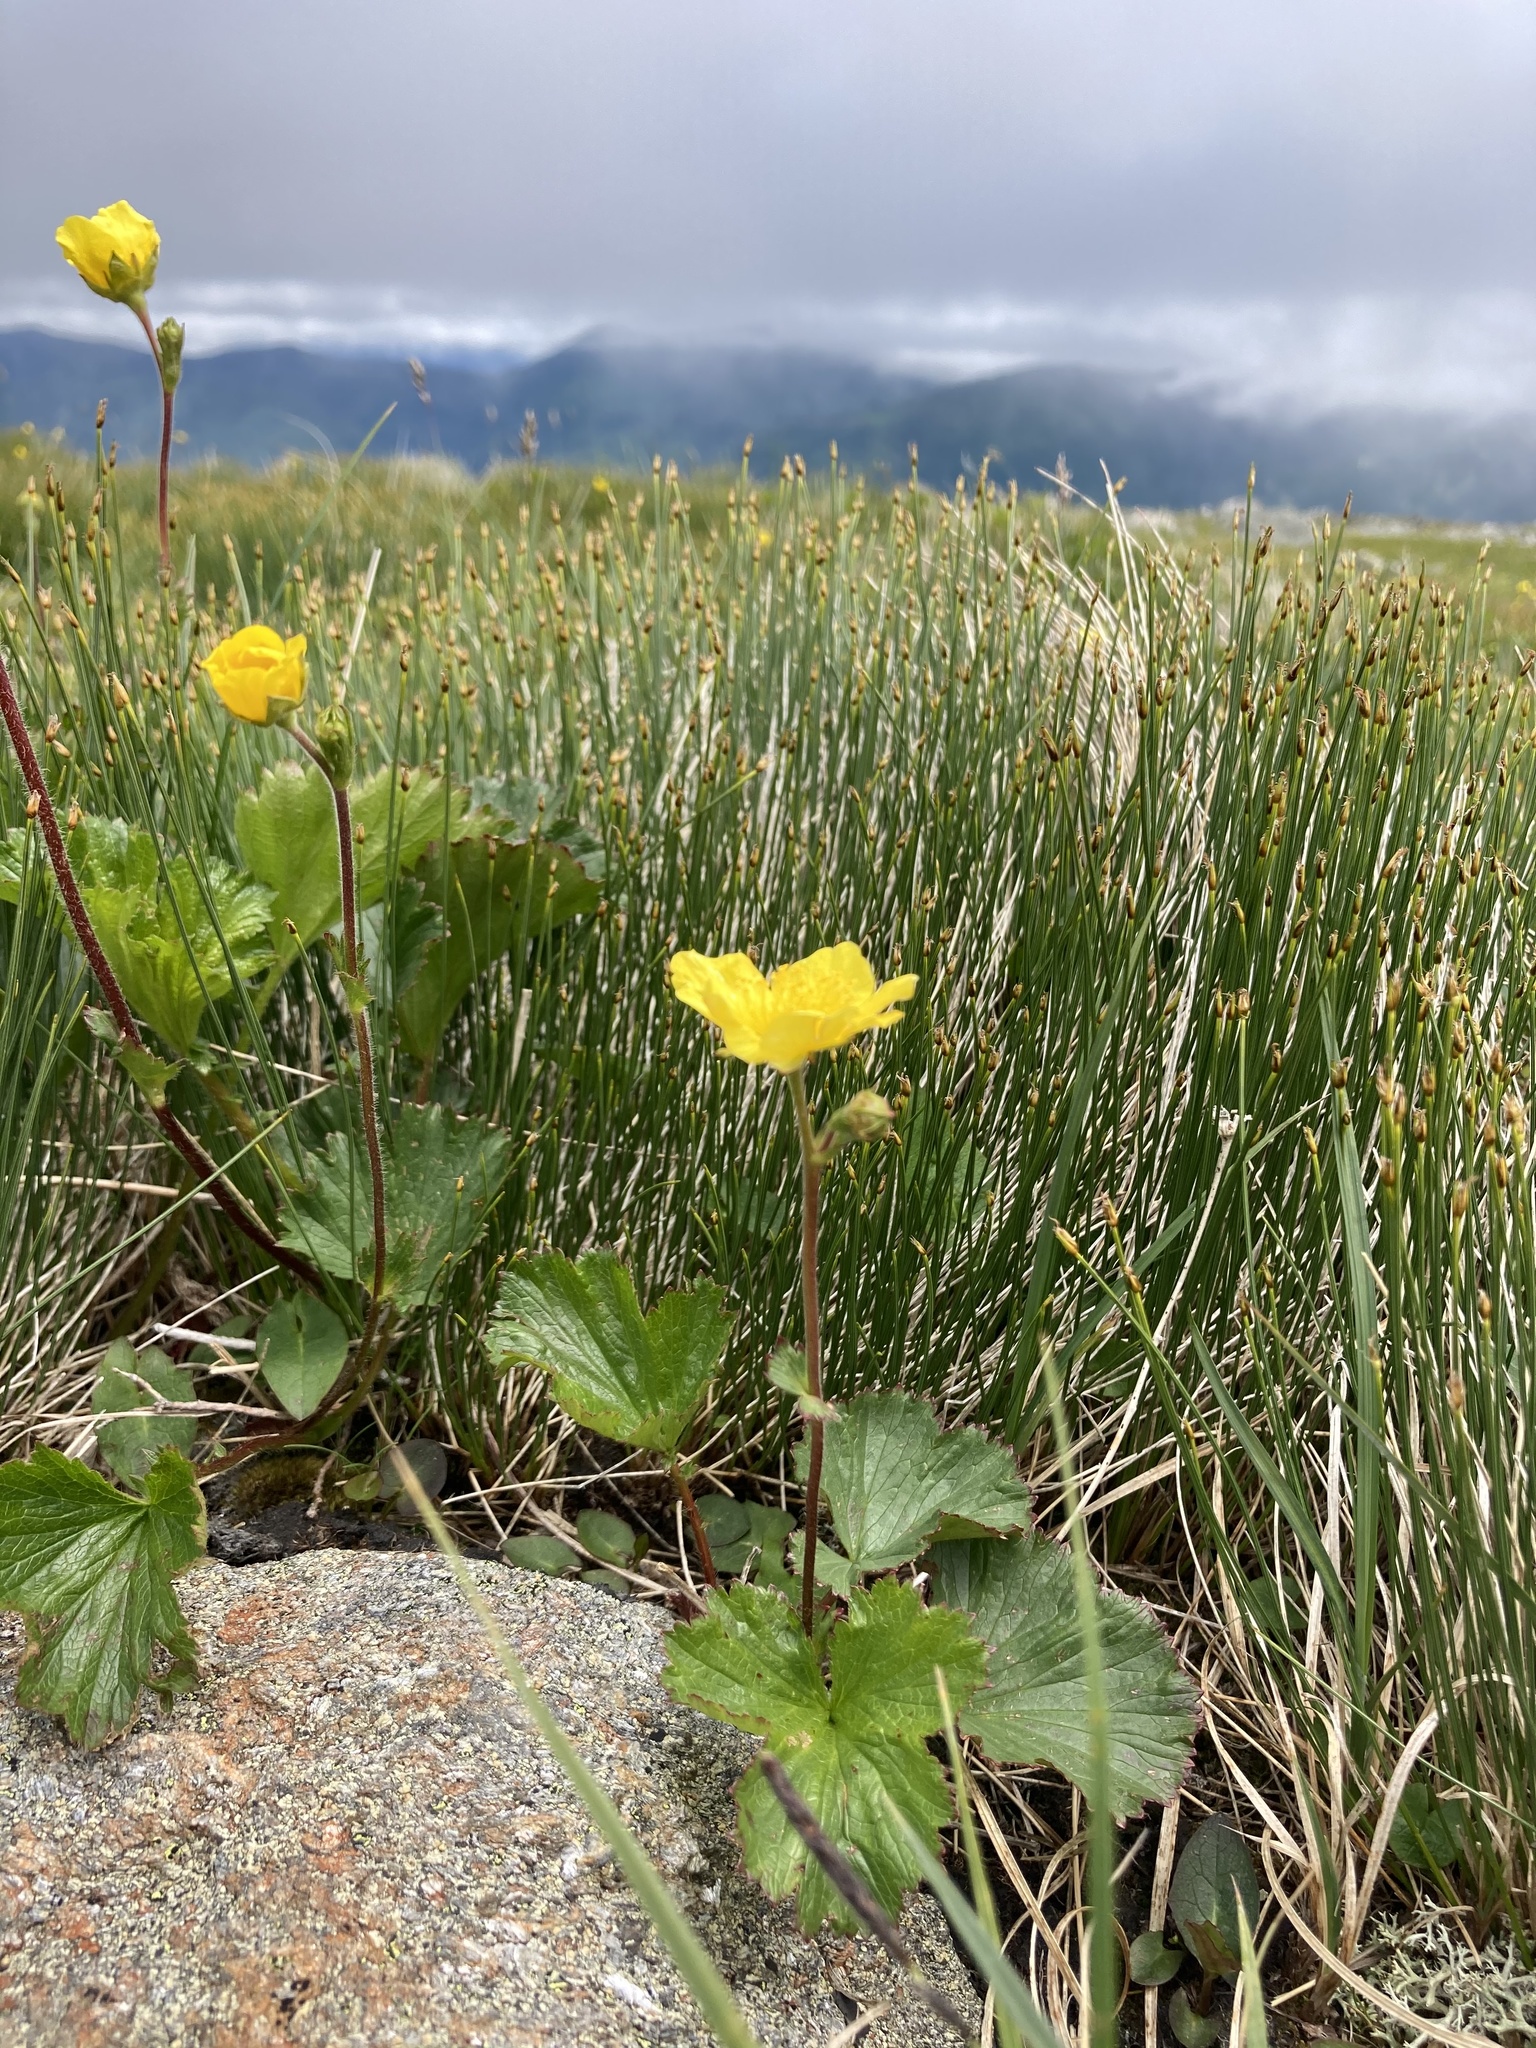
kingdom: Plantae
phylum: Tracheophyta
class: Magnoliopsida
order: Rosales
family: Rosaceae
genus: Geum
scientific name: Geum peckii
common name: Eastern mountain avens
